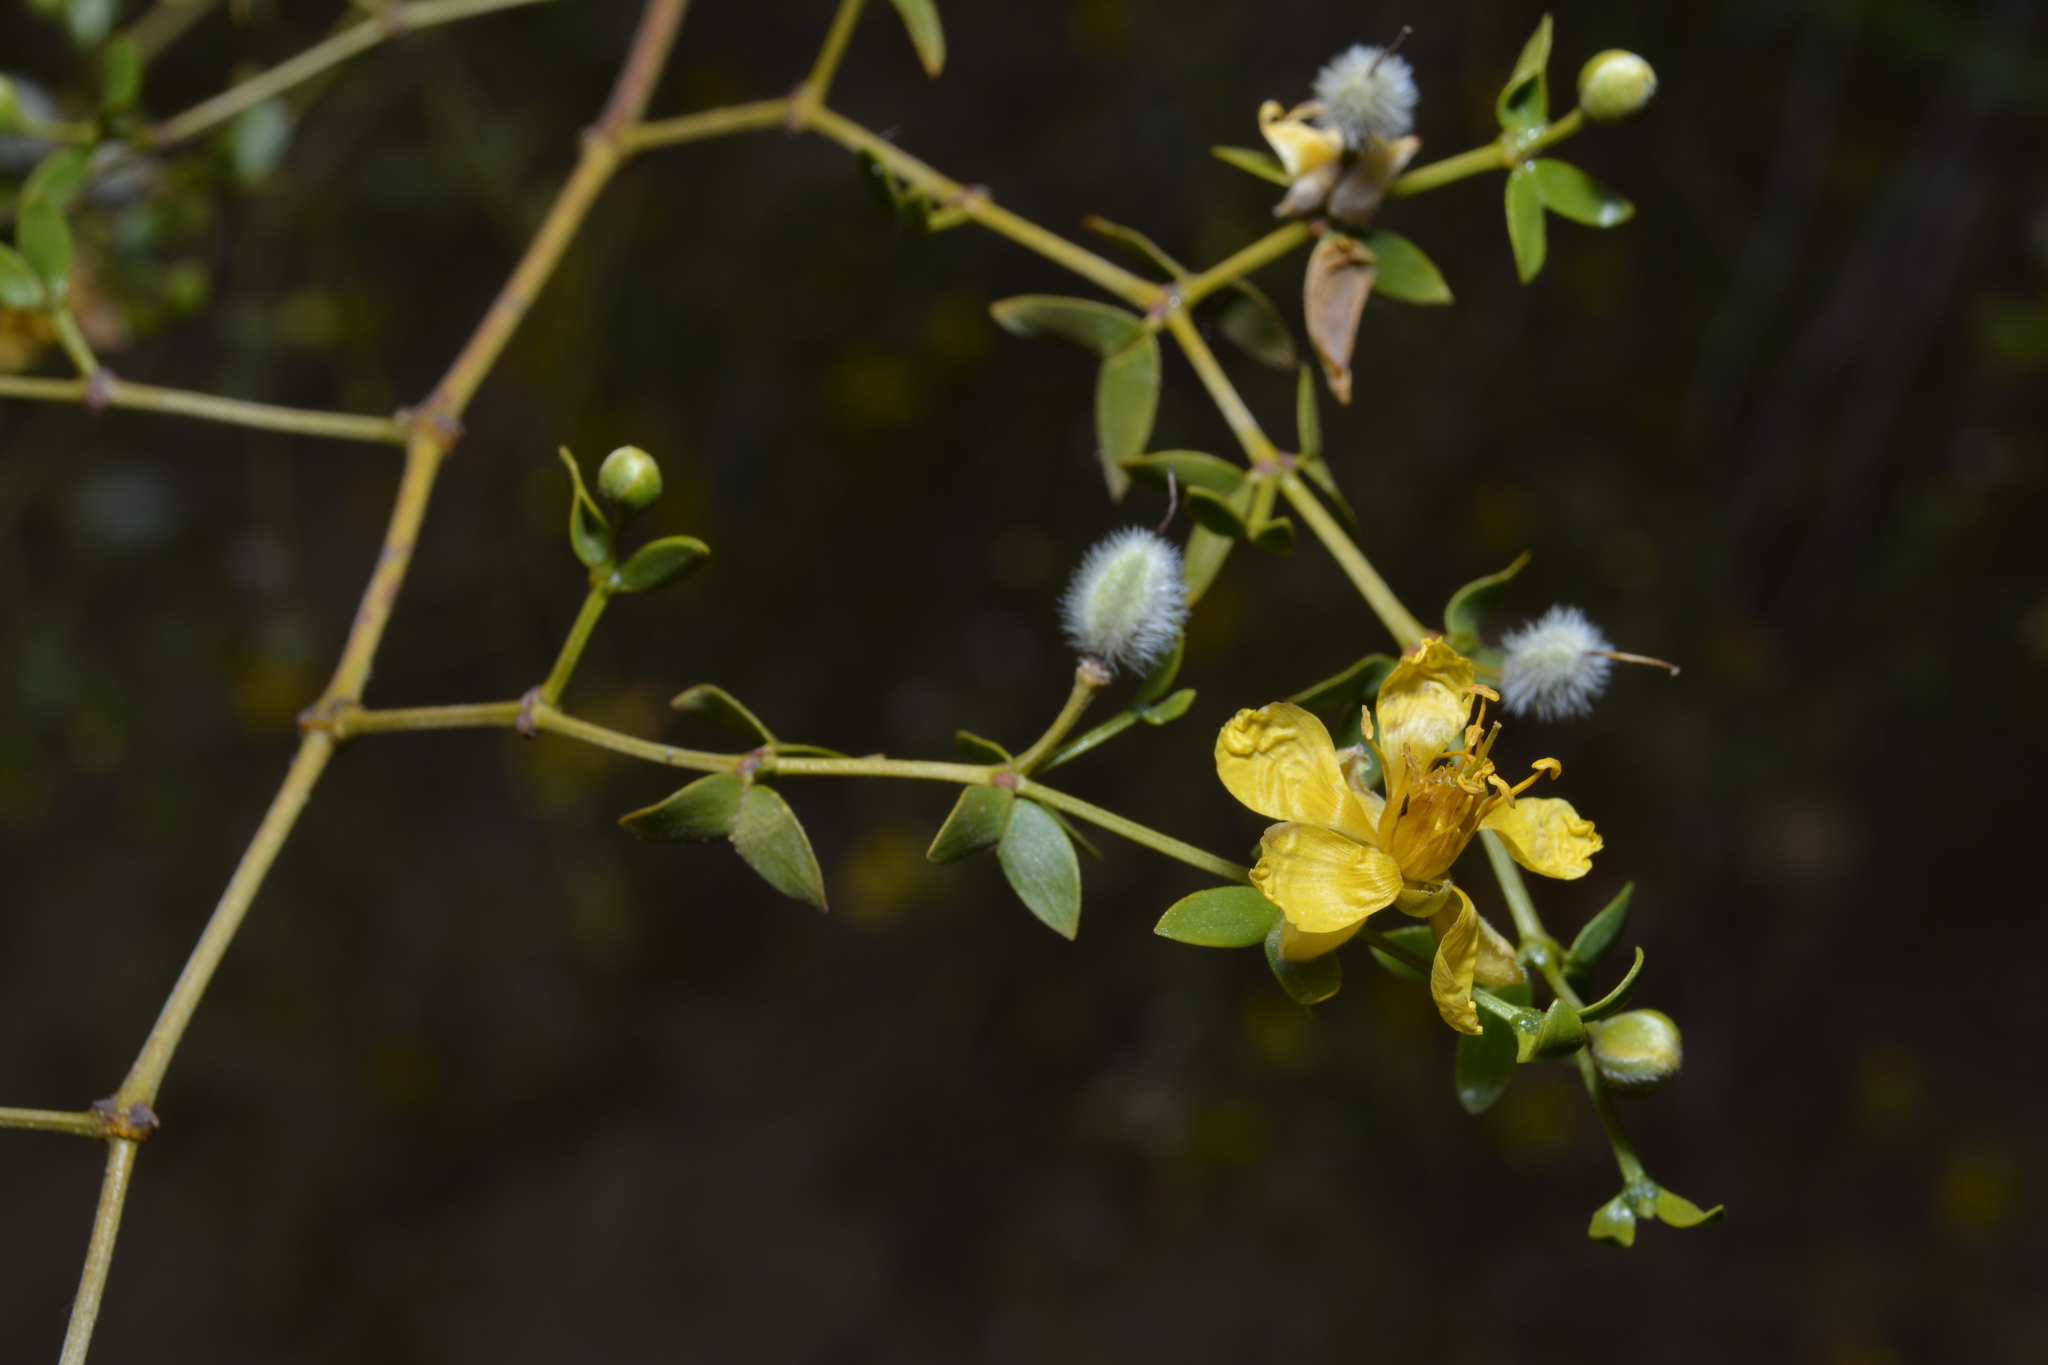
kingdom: Plantae
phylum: Tracheophyta
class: Magnoliopsida
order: Zygophyllales
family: Zygophyllaceae
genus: Larrea
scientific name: Larrea divaricata
